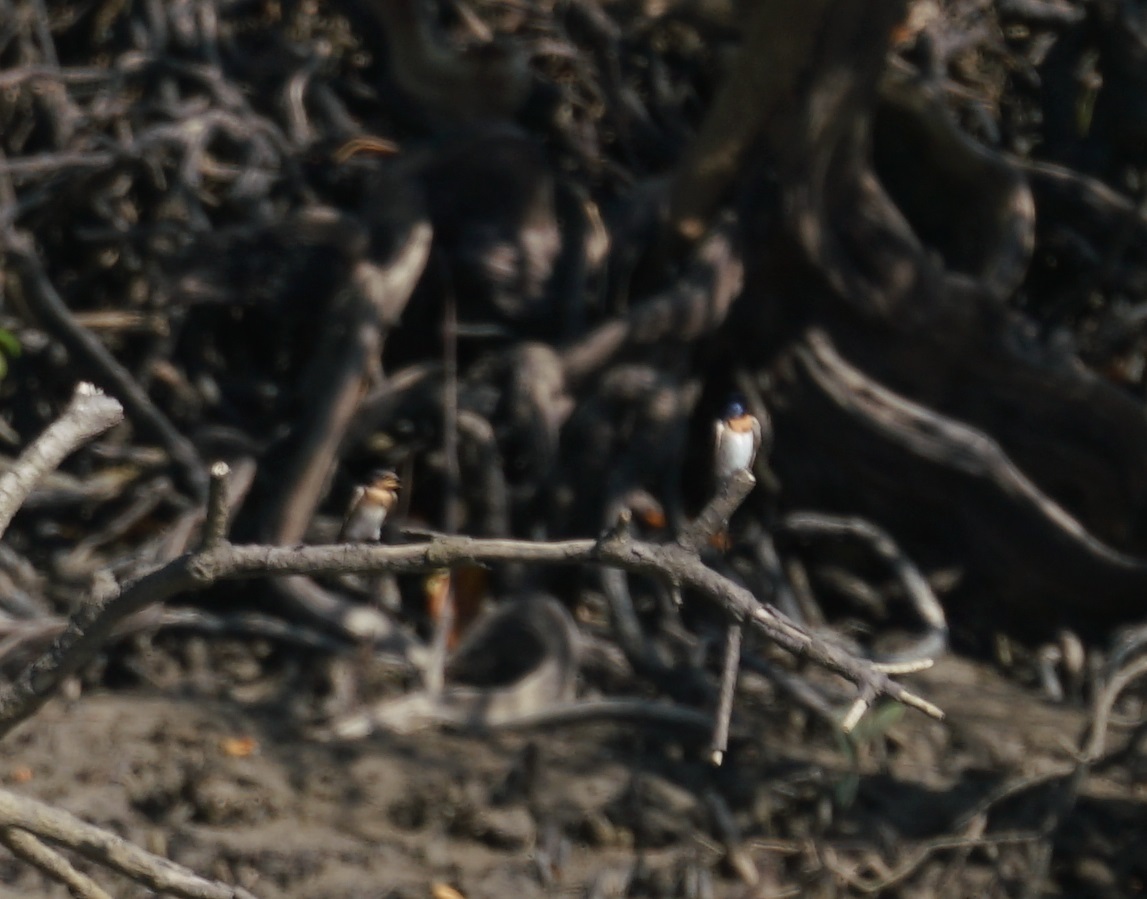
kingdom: Animalia
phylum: Chordata
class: Aves
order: Passeriformes
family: Hirundinidae
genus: Hirundo
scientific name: Hirundo neoxena
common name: Welcome swallow
